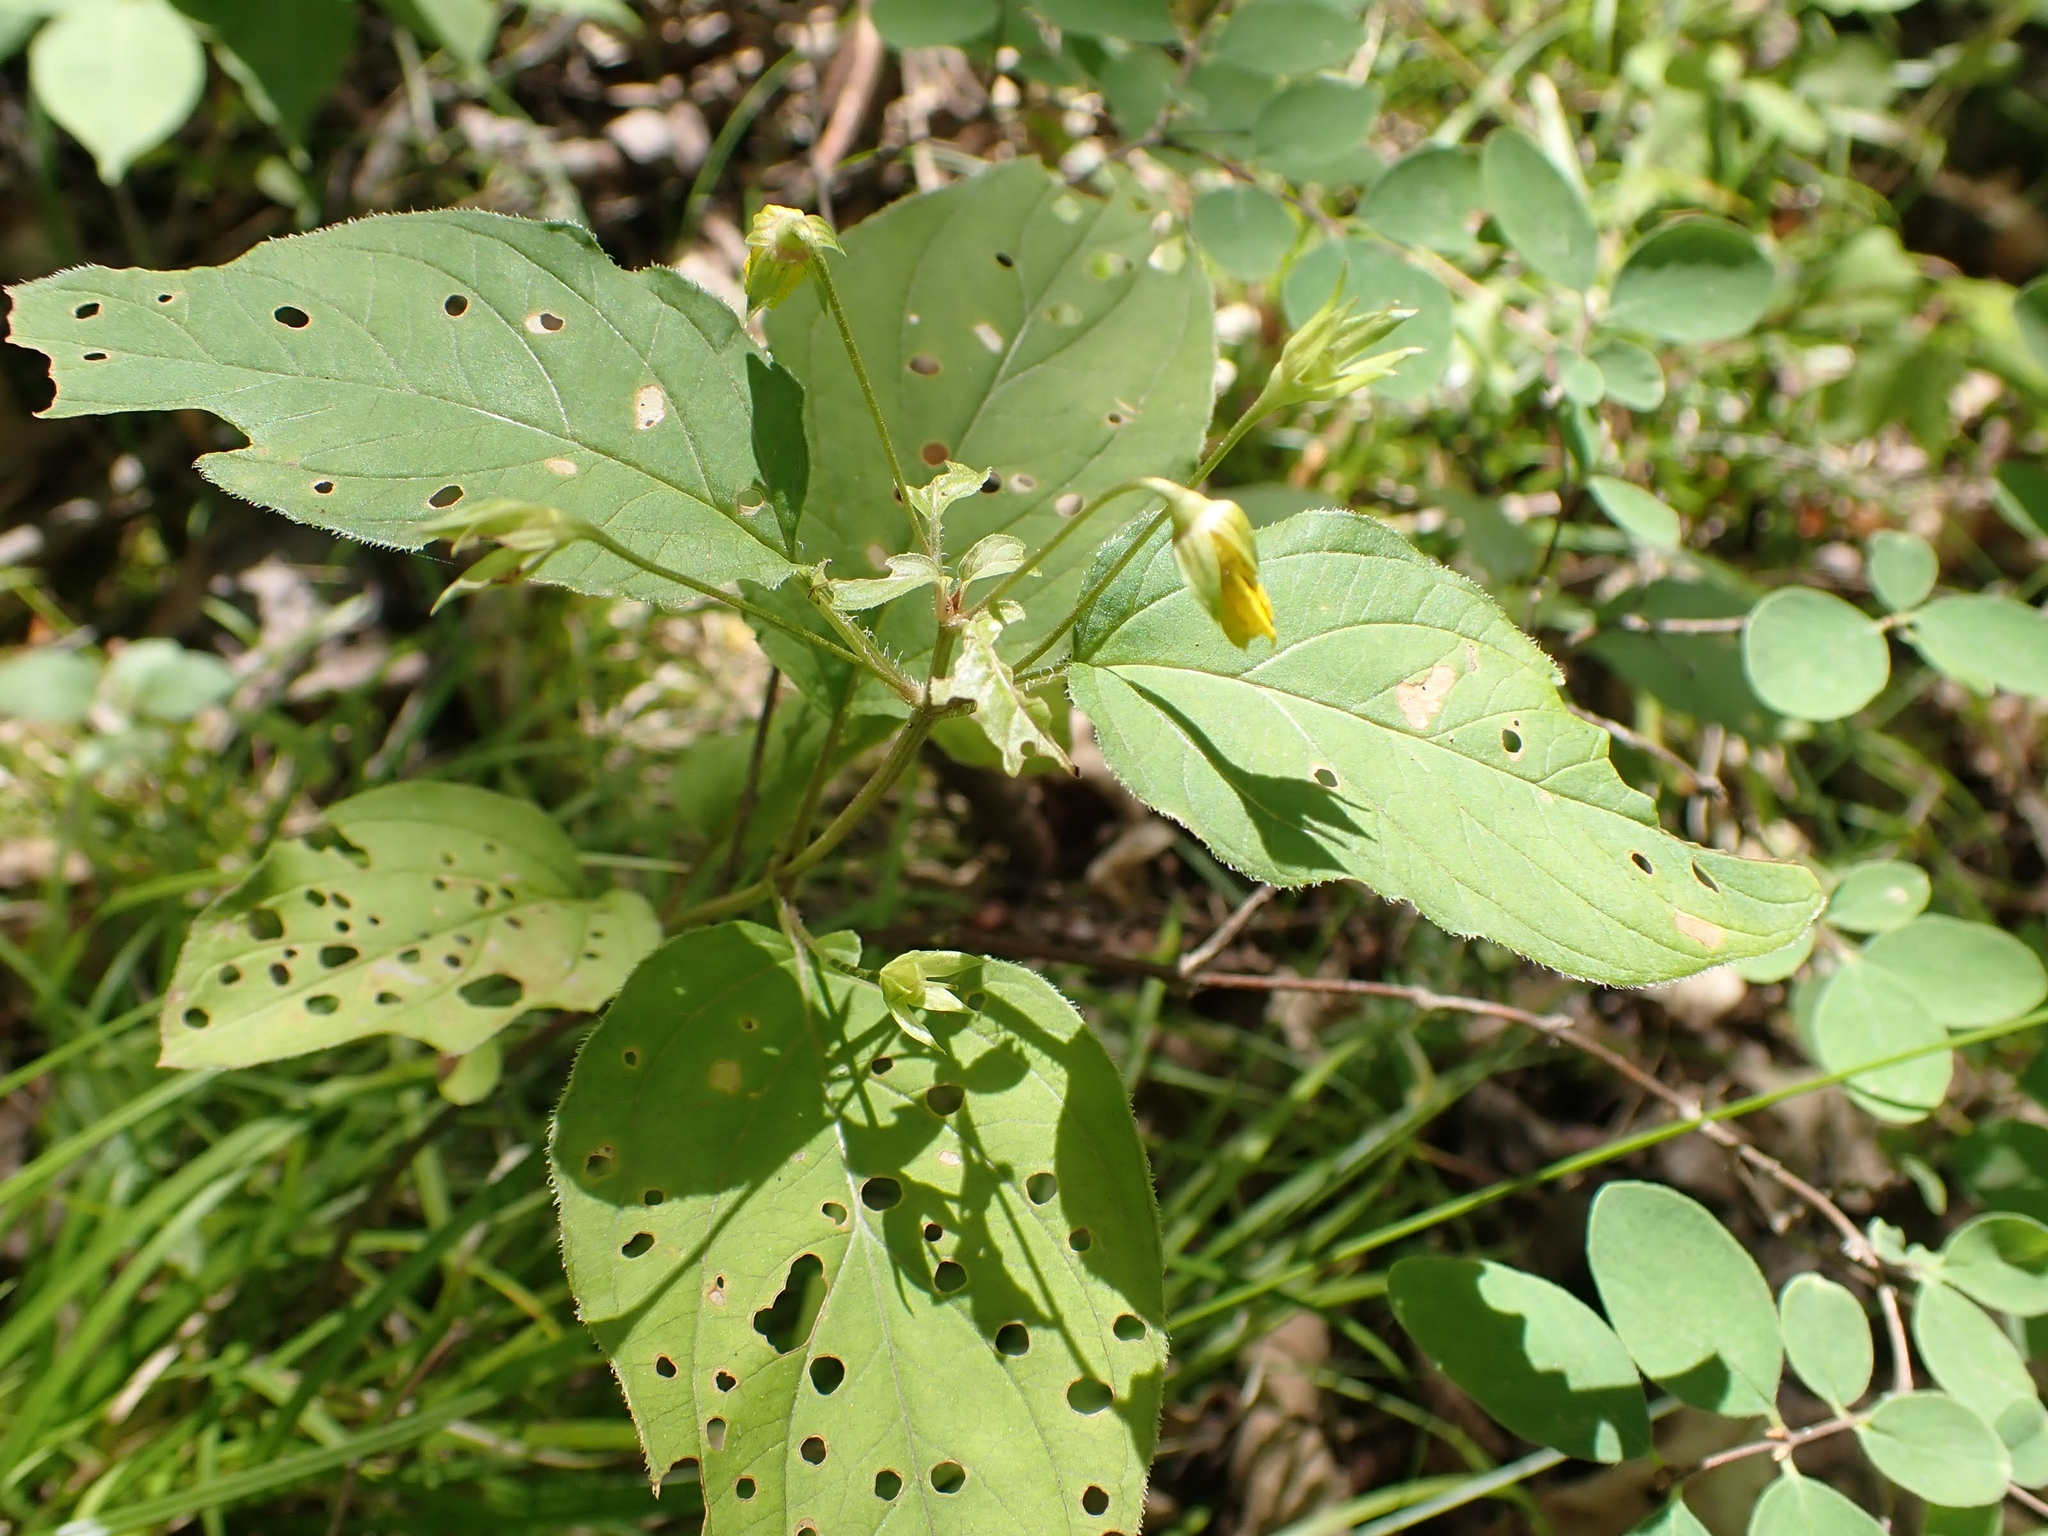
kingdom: Plantae
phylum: Tracheophyta
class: Magnoliopsida
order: Ericales
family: Primulaceae
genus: Lysimachia
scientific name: Lysimachia ciliata
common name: Fringed loosestrife
